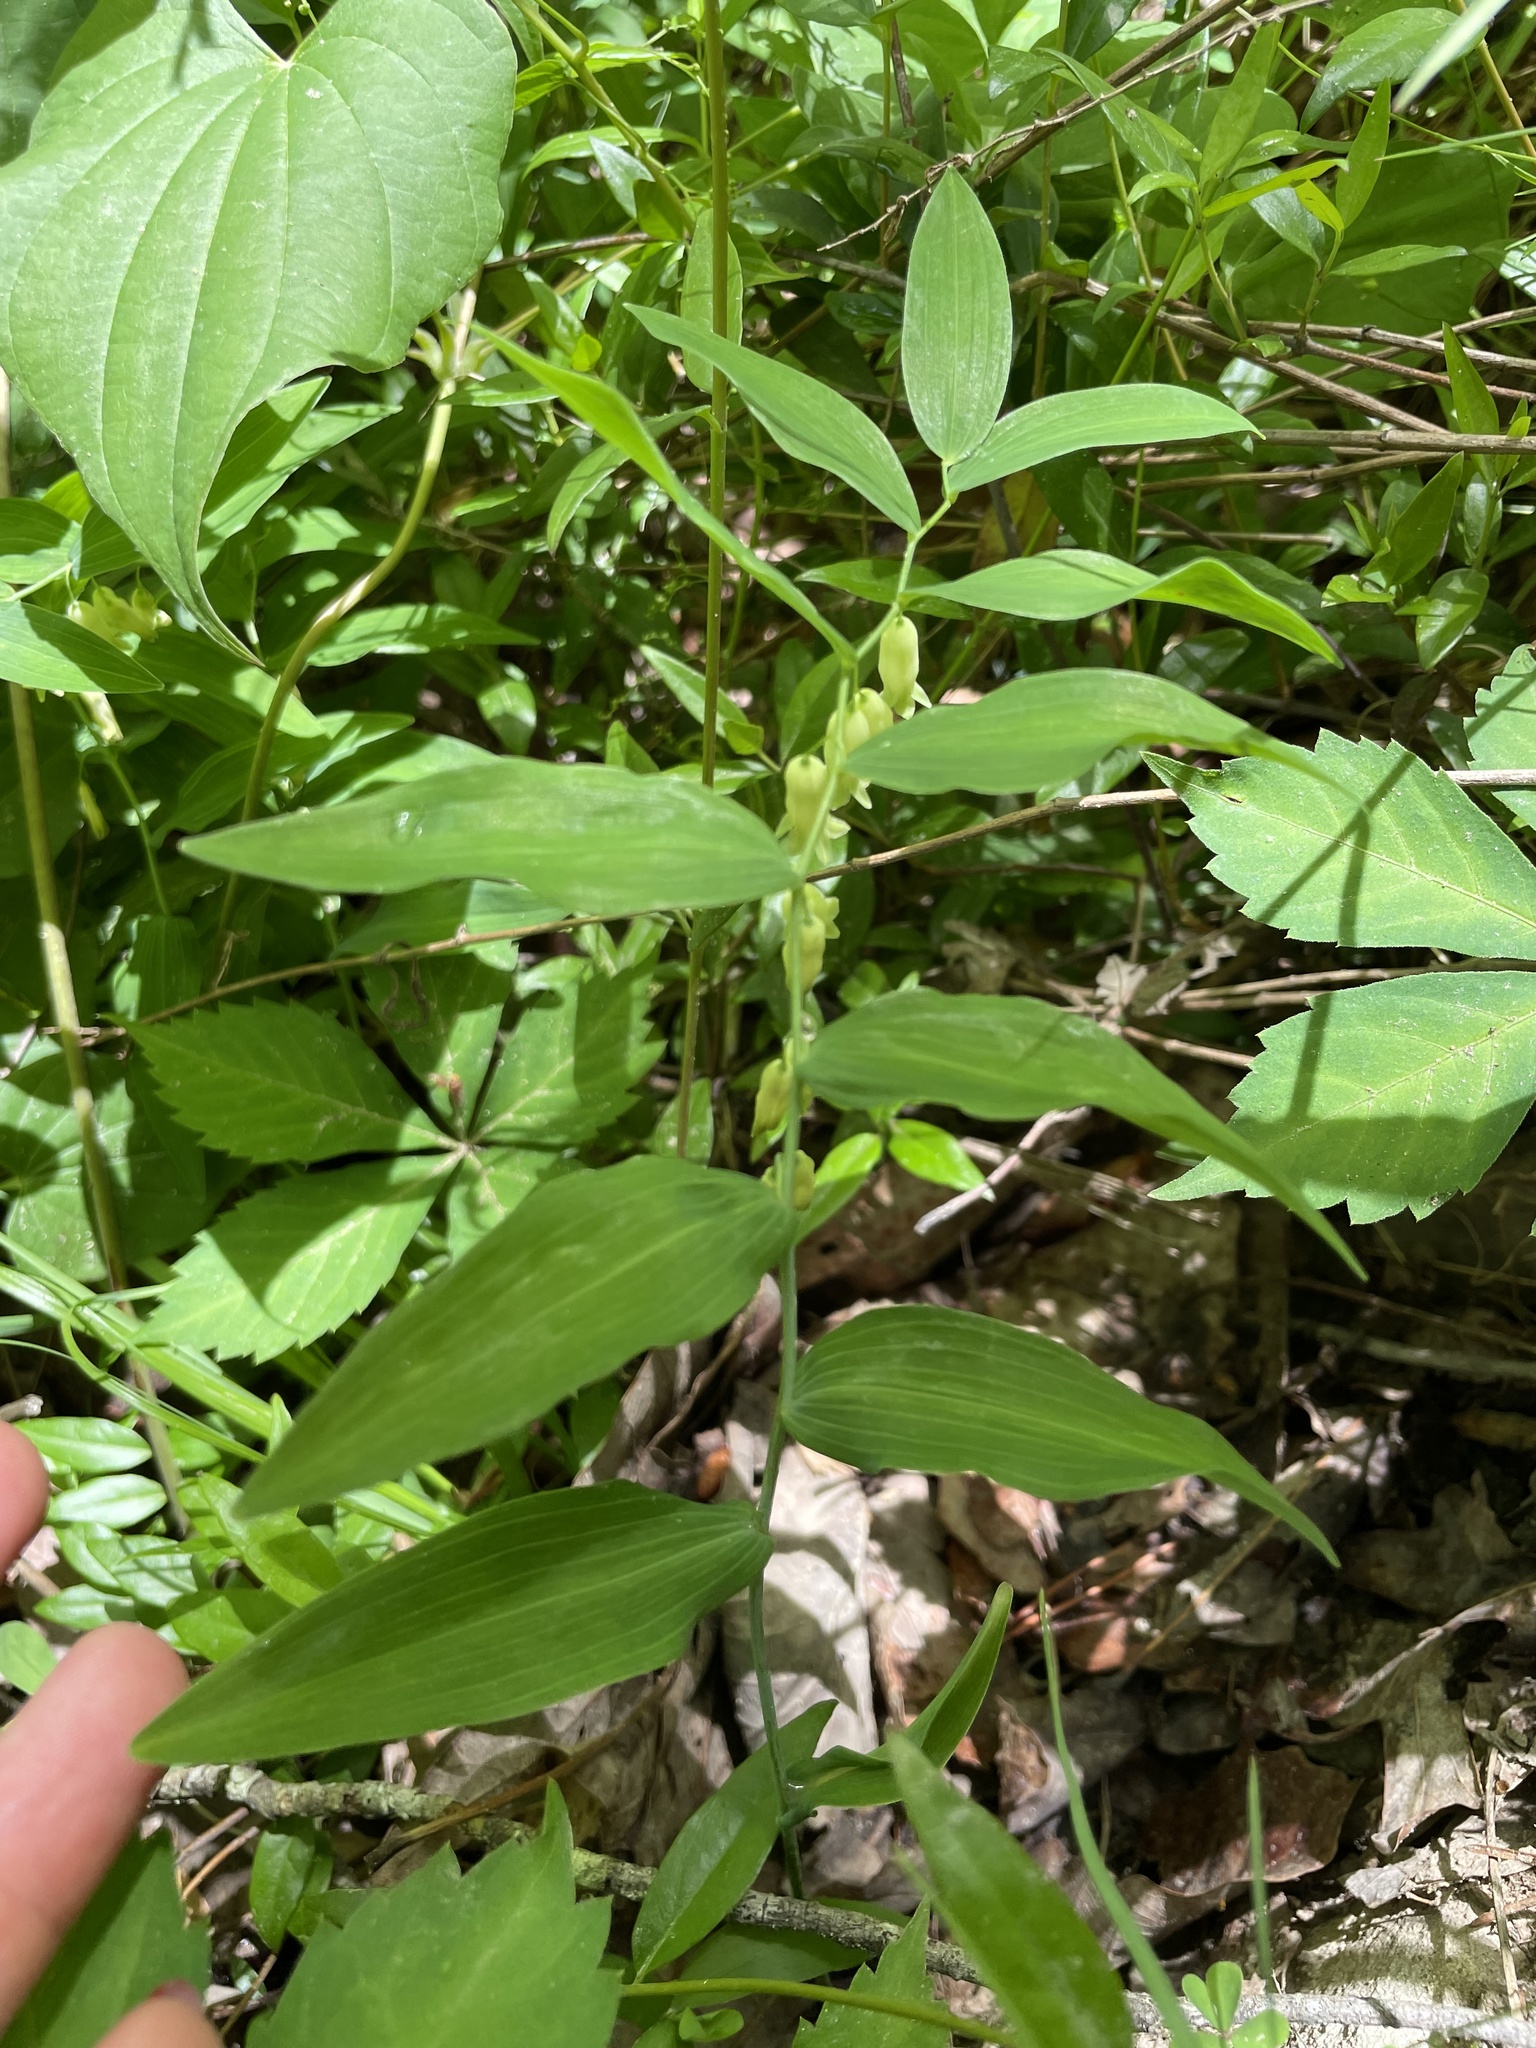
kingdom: Plantae
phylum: Tracheophyta
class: Liliopsida
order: Asparagales
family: Asparagaceae
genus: Polygonatum
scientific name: Polygonatum biflorum
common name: American solomon's-seal
